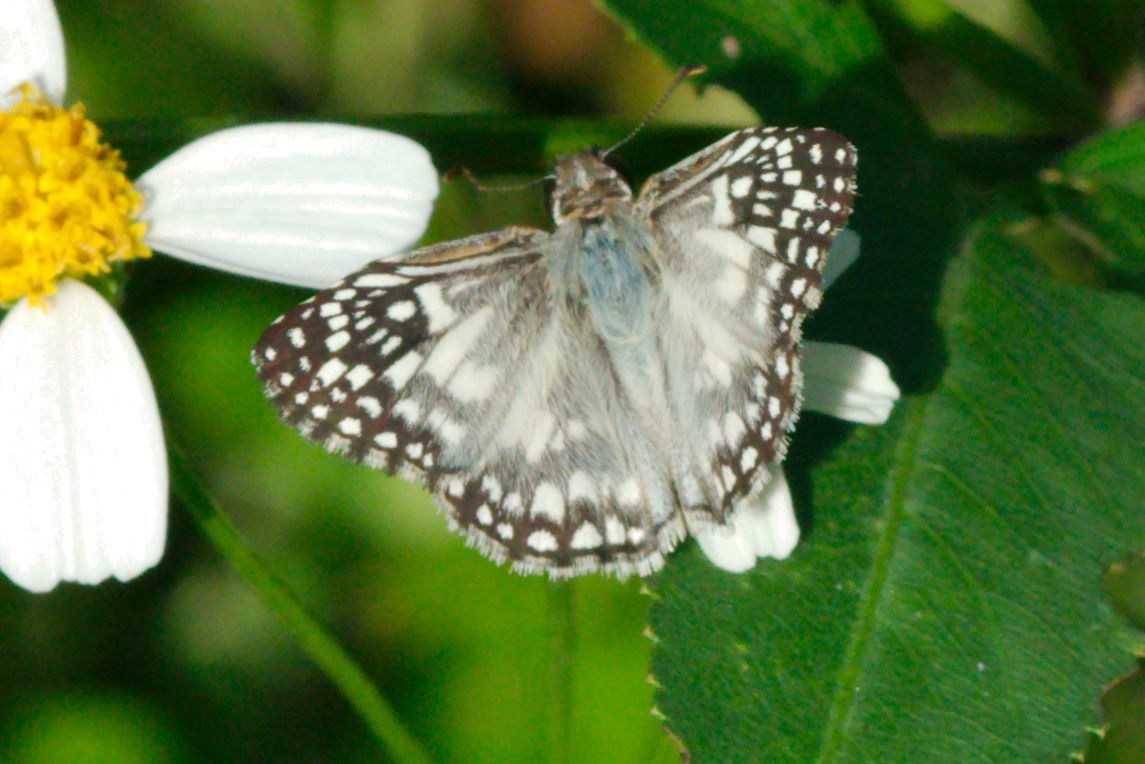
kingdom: Animalia
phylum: Arthropoda
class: Insecta
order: Lepidoptera
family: Hesperiidae
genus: Pyrgus
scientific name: Pyrgus oileus
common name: Tropical checkered-skipper
